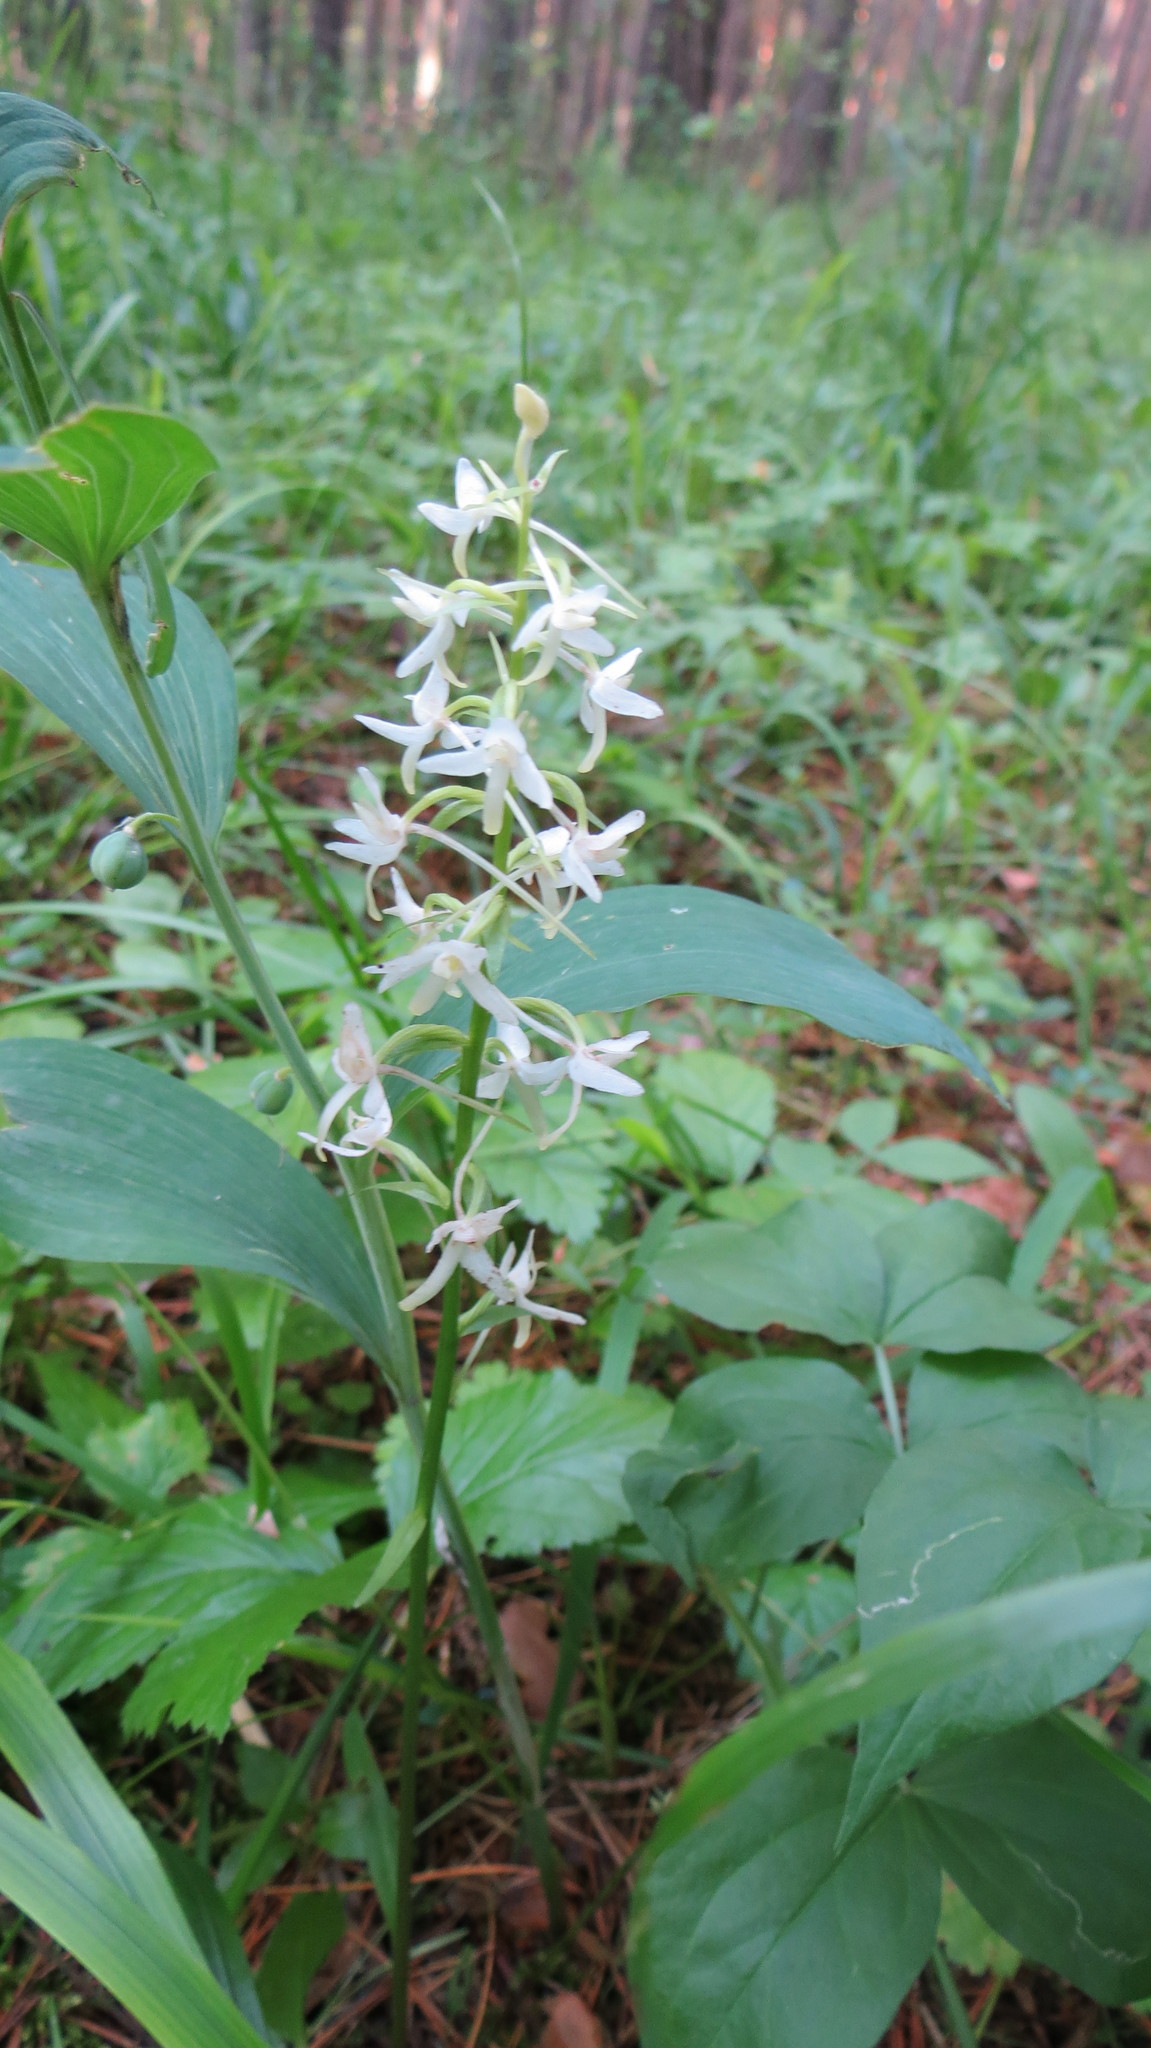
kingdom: Plantae
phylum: Tracheophyta
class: Liliopsida
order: Asparagales
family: Orchidaceae
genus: Platanthera
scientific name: Platanthera bifolia
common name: Lesser butterfly-orchid
